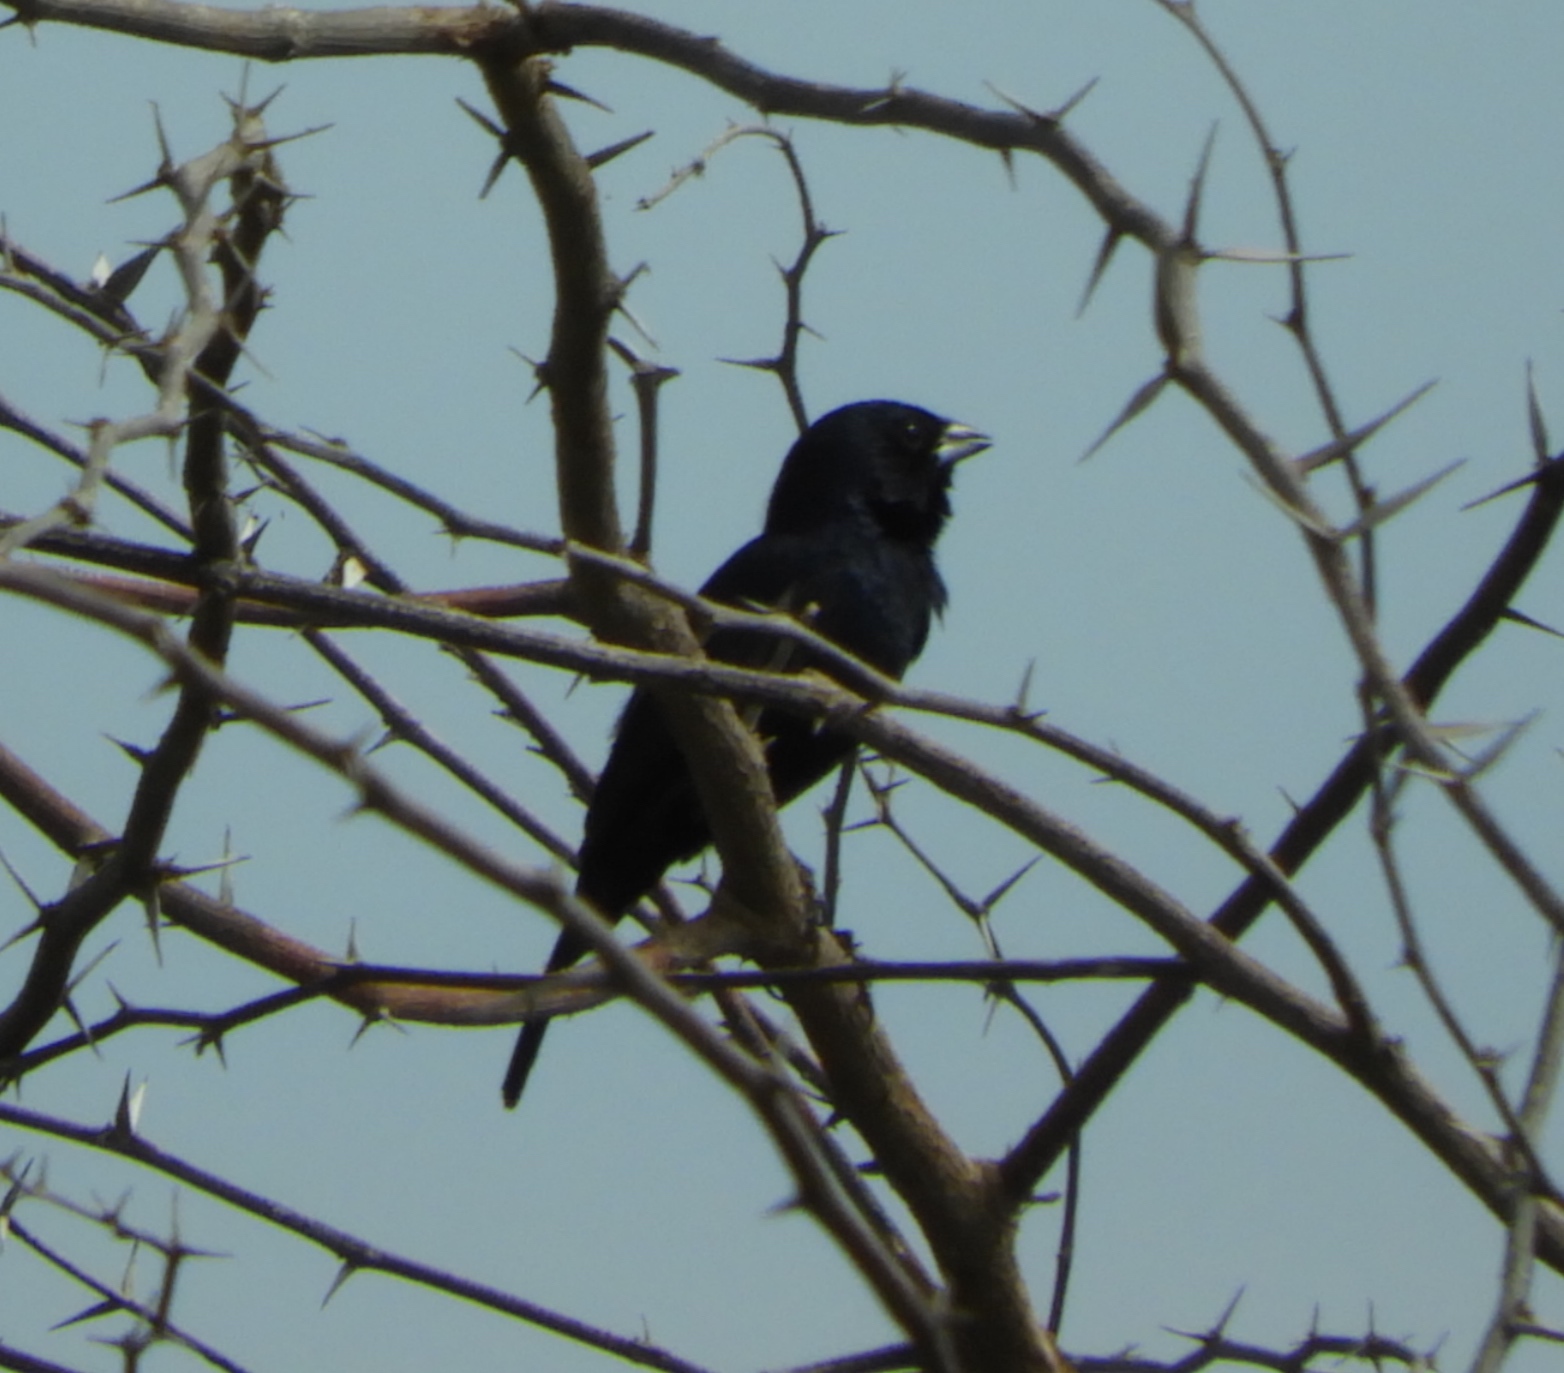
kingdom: Animalia
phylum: Chordata
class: Aves
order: Passeriformes
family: Thraupidae
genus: Volatinia
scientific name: Volatinia jacarina
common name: Blue-black grassquit
